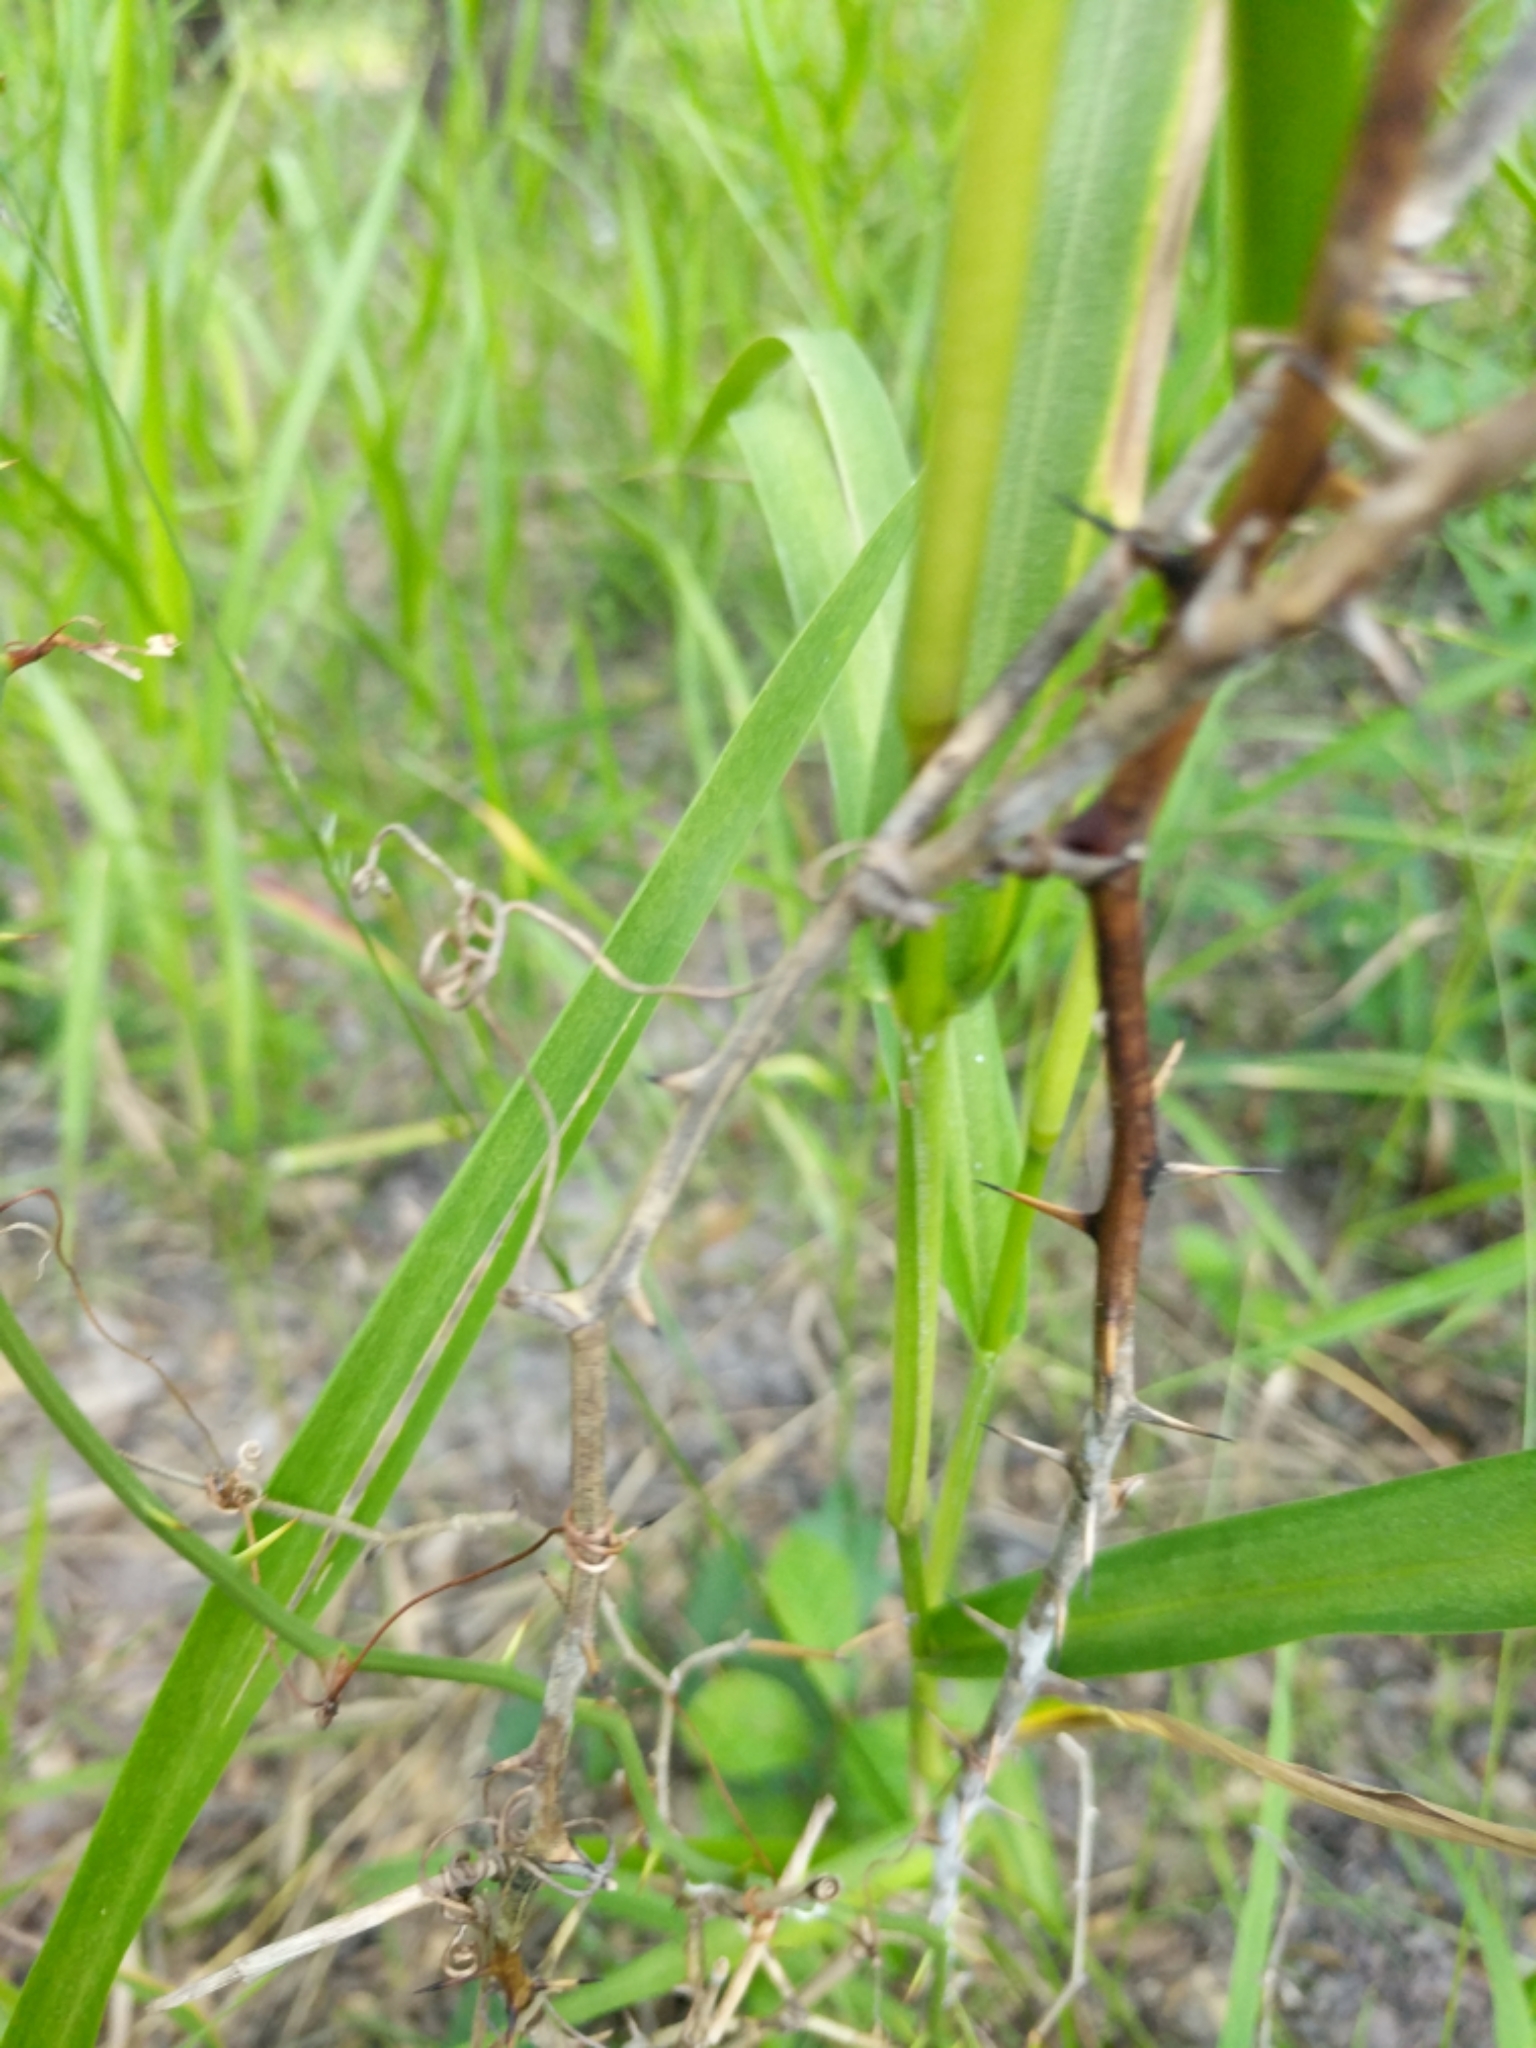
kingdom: Plantae
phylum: Tracheophyta
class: Liliopsida
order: Liliales
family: Smilacaceae
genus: Smilax
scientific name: Smilax rotundifolia
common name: Bullbriar
